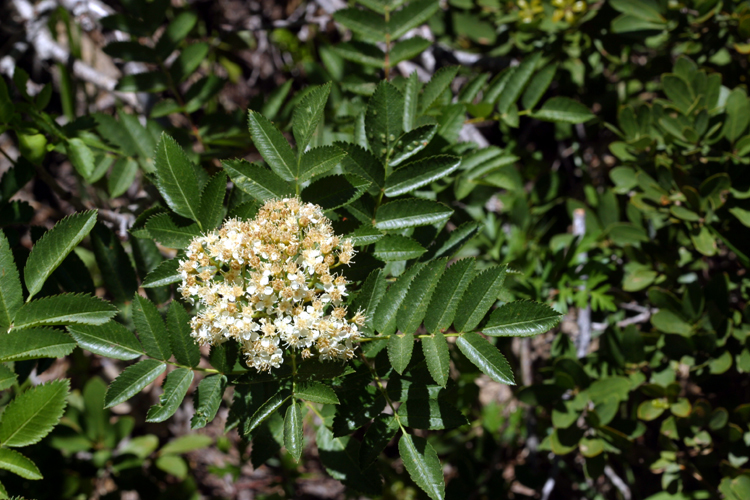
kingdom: Plantae
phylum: Tracheophyta
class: Magnoliopsida
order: Rosales
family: Rosaceae
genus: Sorbus
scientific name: Sorbus californica
